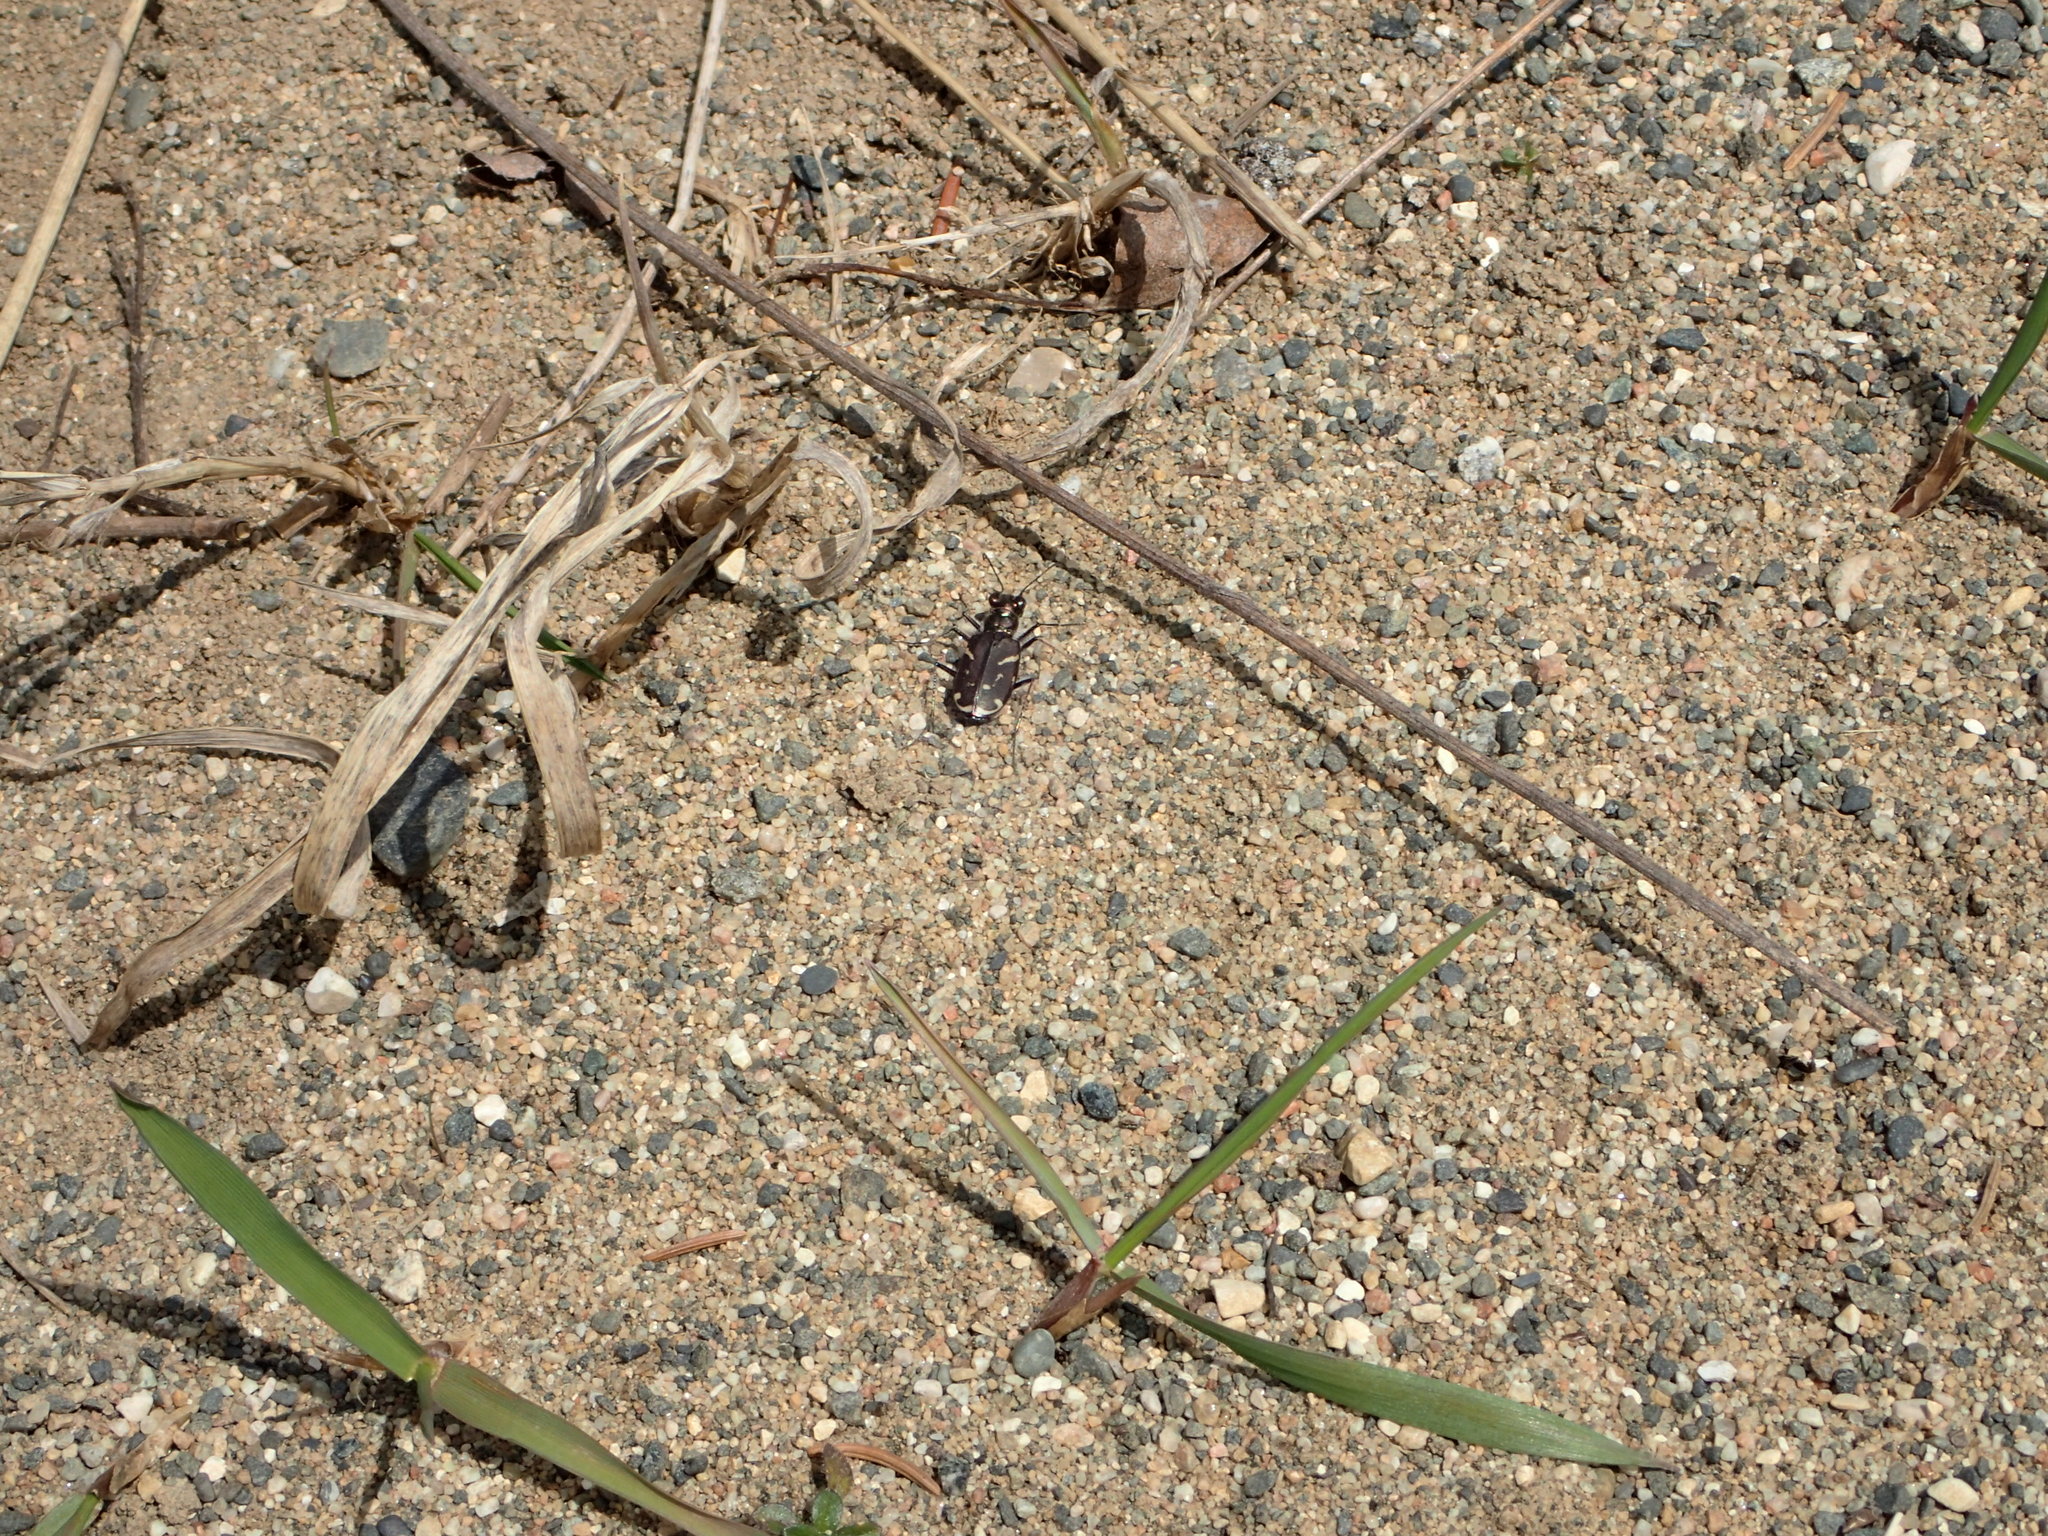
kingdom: Animalia
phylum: Arthropoda
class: Insecta
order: Coleoptera
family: Carabidae
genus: Cicindela
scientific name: Cicindela tranquebarica
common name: Oblique-lined tiger beetle
